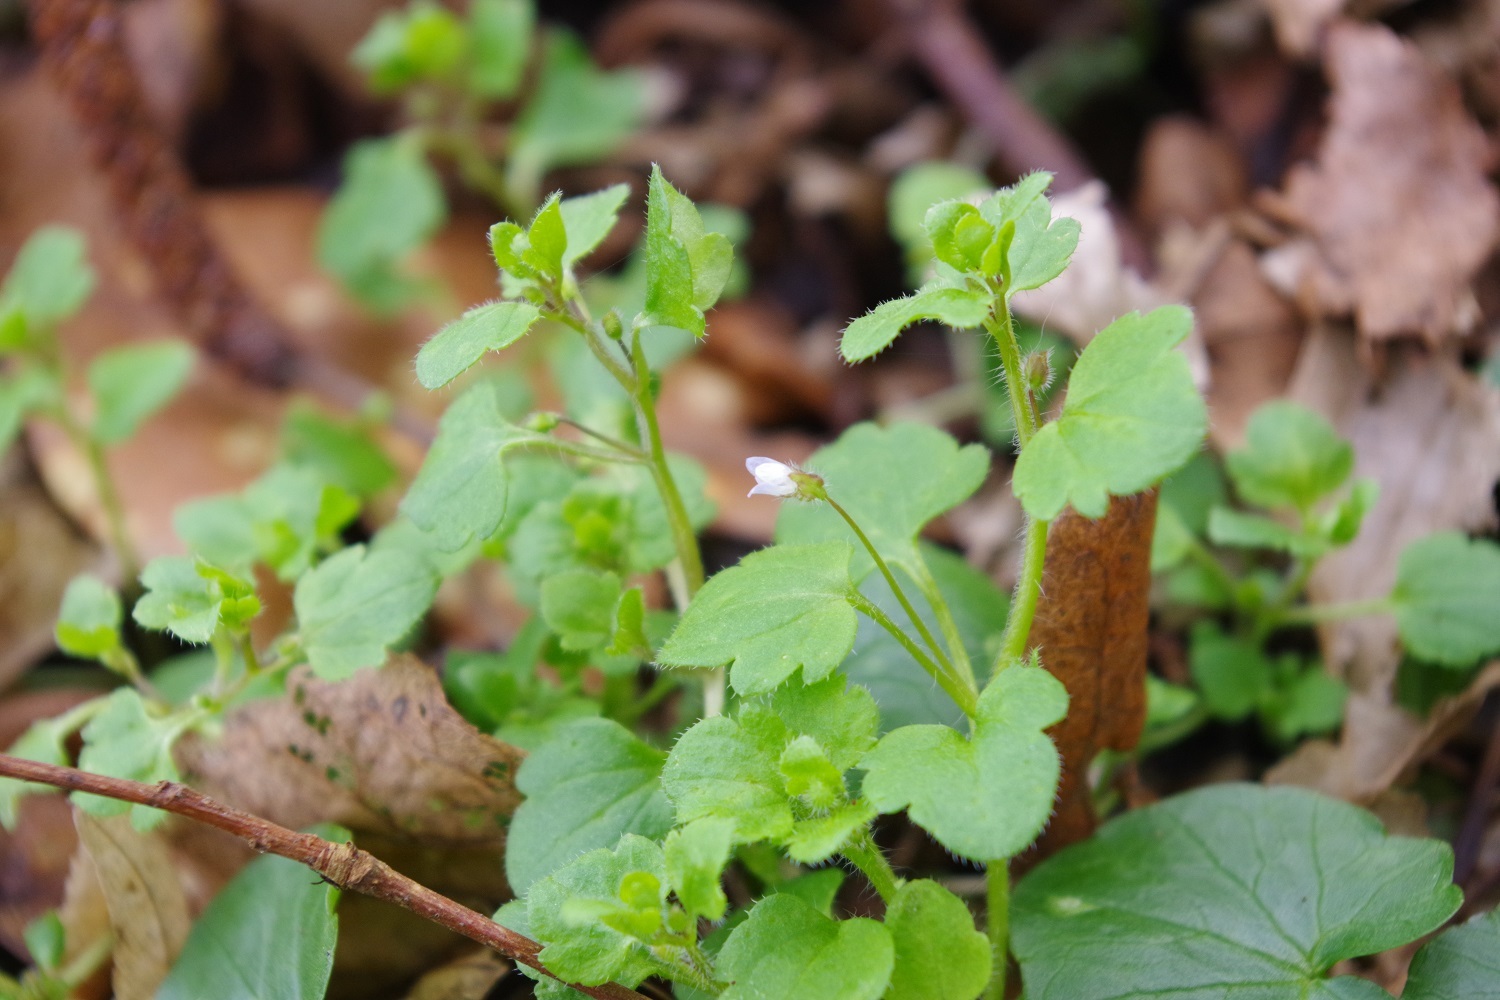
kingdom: Plantae
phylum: Tracheophyta
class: Magnoliopsida
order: Lamiales
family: Plantaginaceae
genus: Veronica
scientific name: Veronica sublobata
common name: False ivy-leaved speedwell
